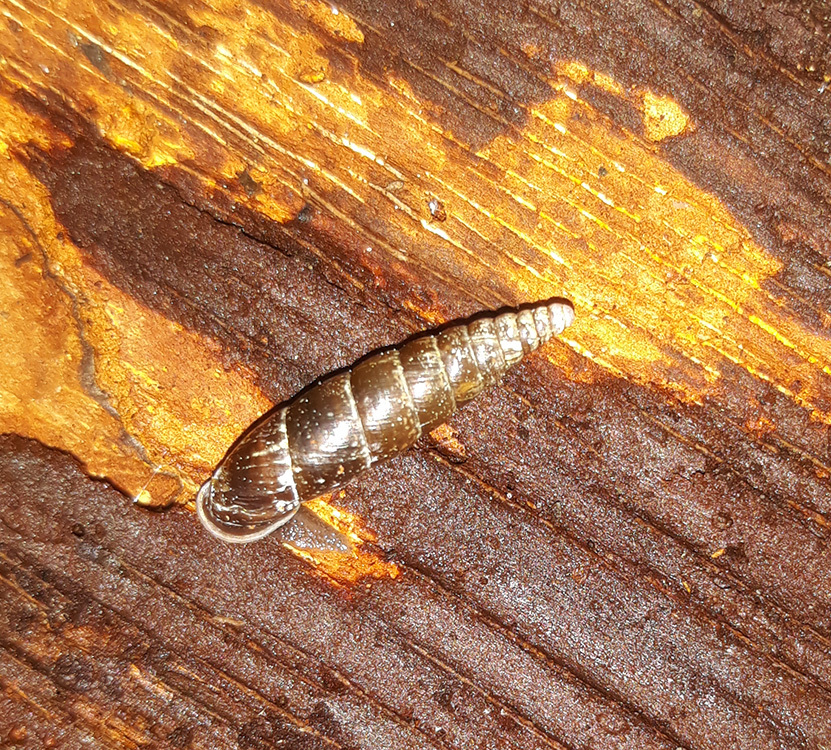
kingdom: Animalia
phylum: Mollusca
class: Gastropoda
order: Stylommatophora
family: Clausiliidae
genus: Cochlodina
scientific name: Cochlodina laminata
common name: Plaited door snail
